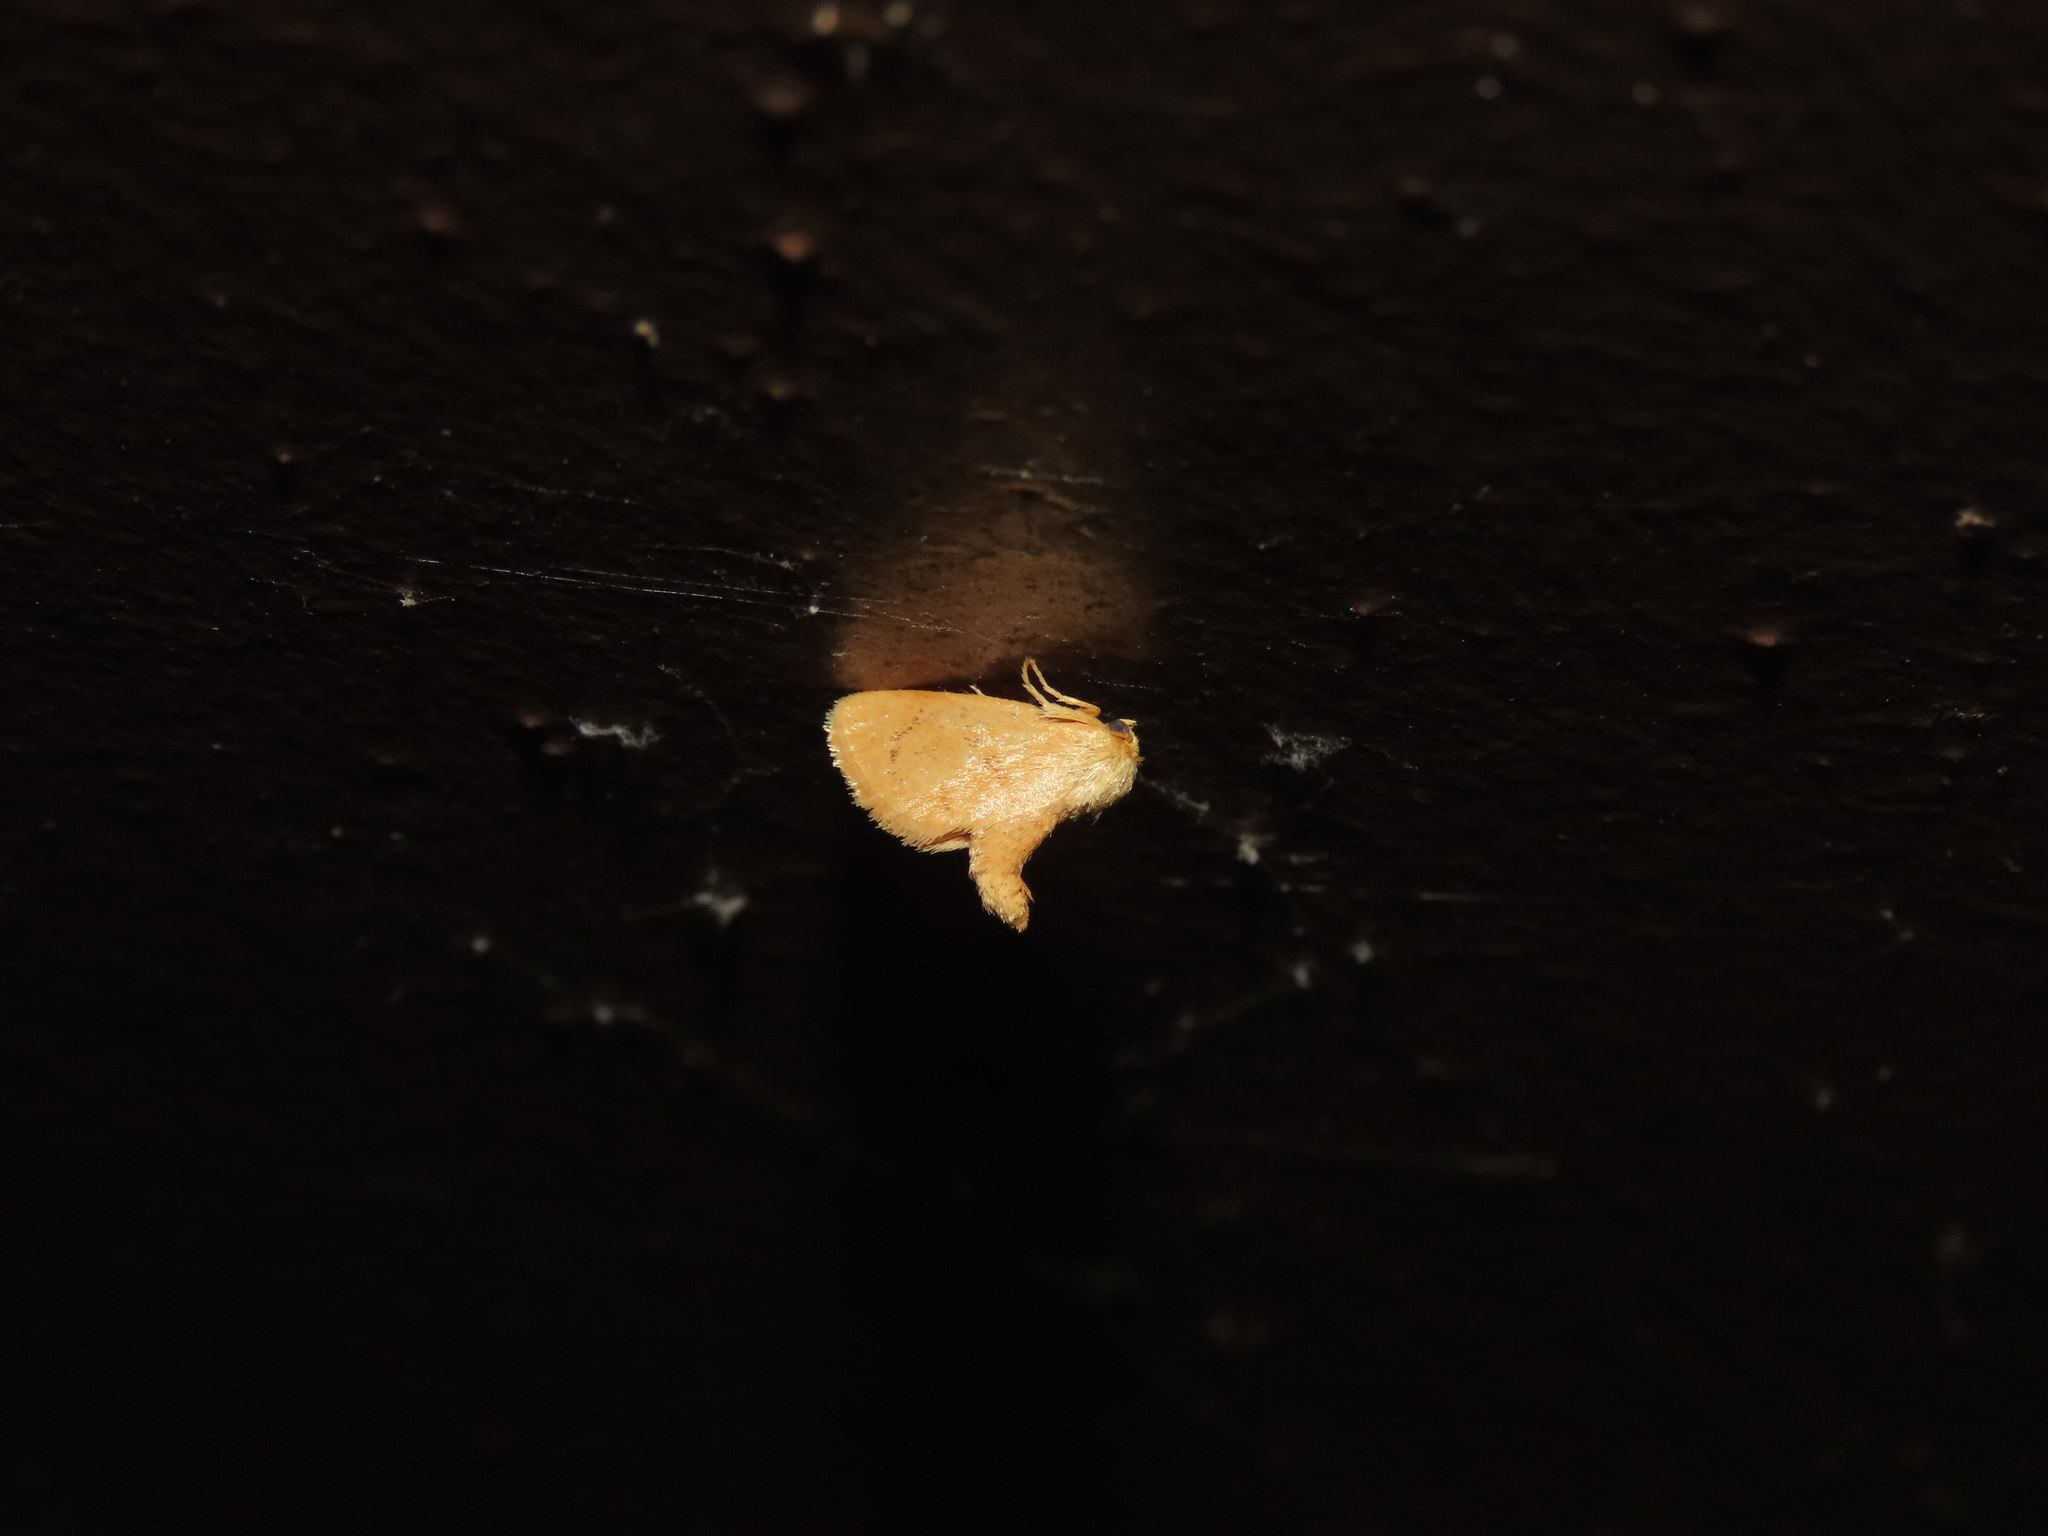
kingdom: Animalia
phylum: Arthropoda
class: Insecta
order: Lepidoptera
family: Limacodidae
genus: Tortricidia
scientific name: Tortricidia pallida
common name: Red-crossed button slug moth
